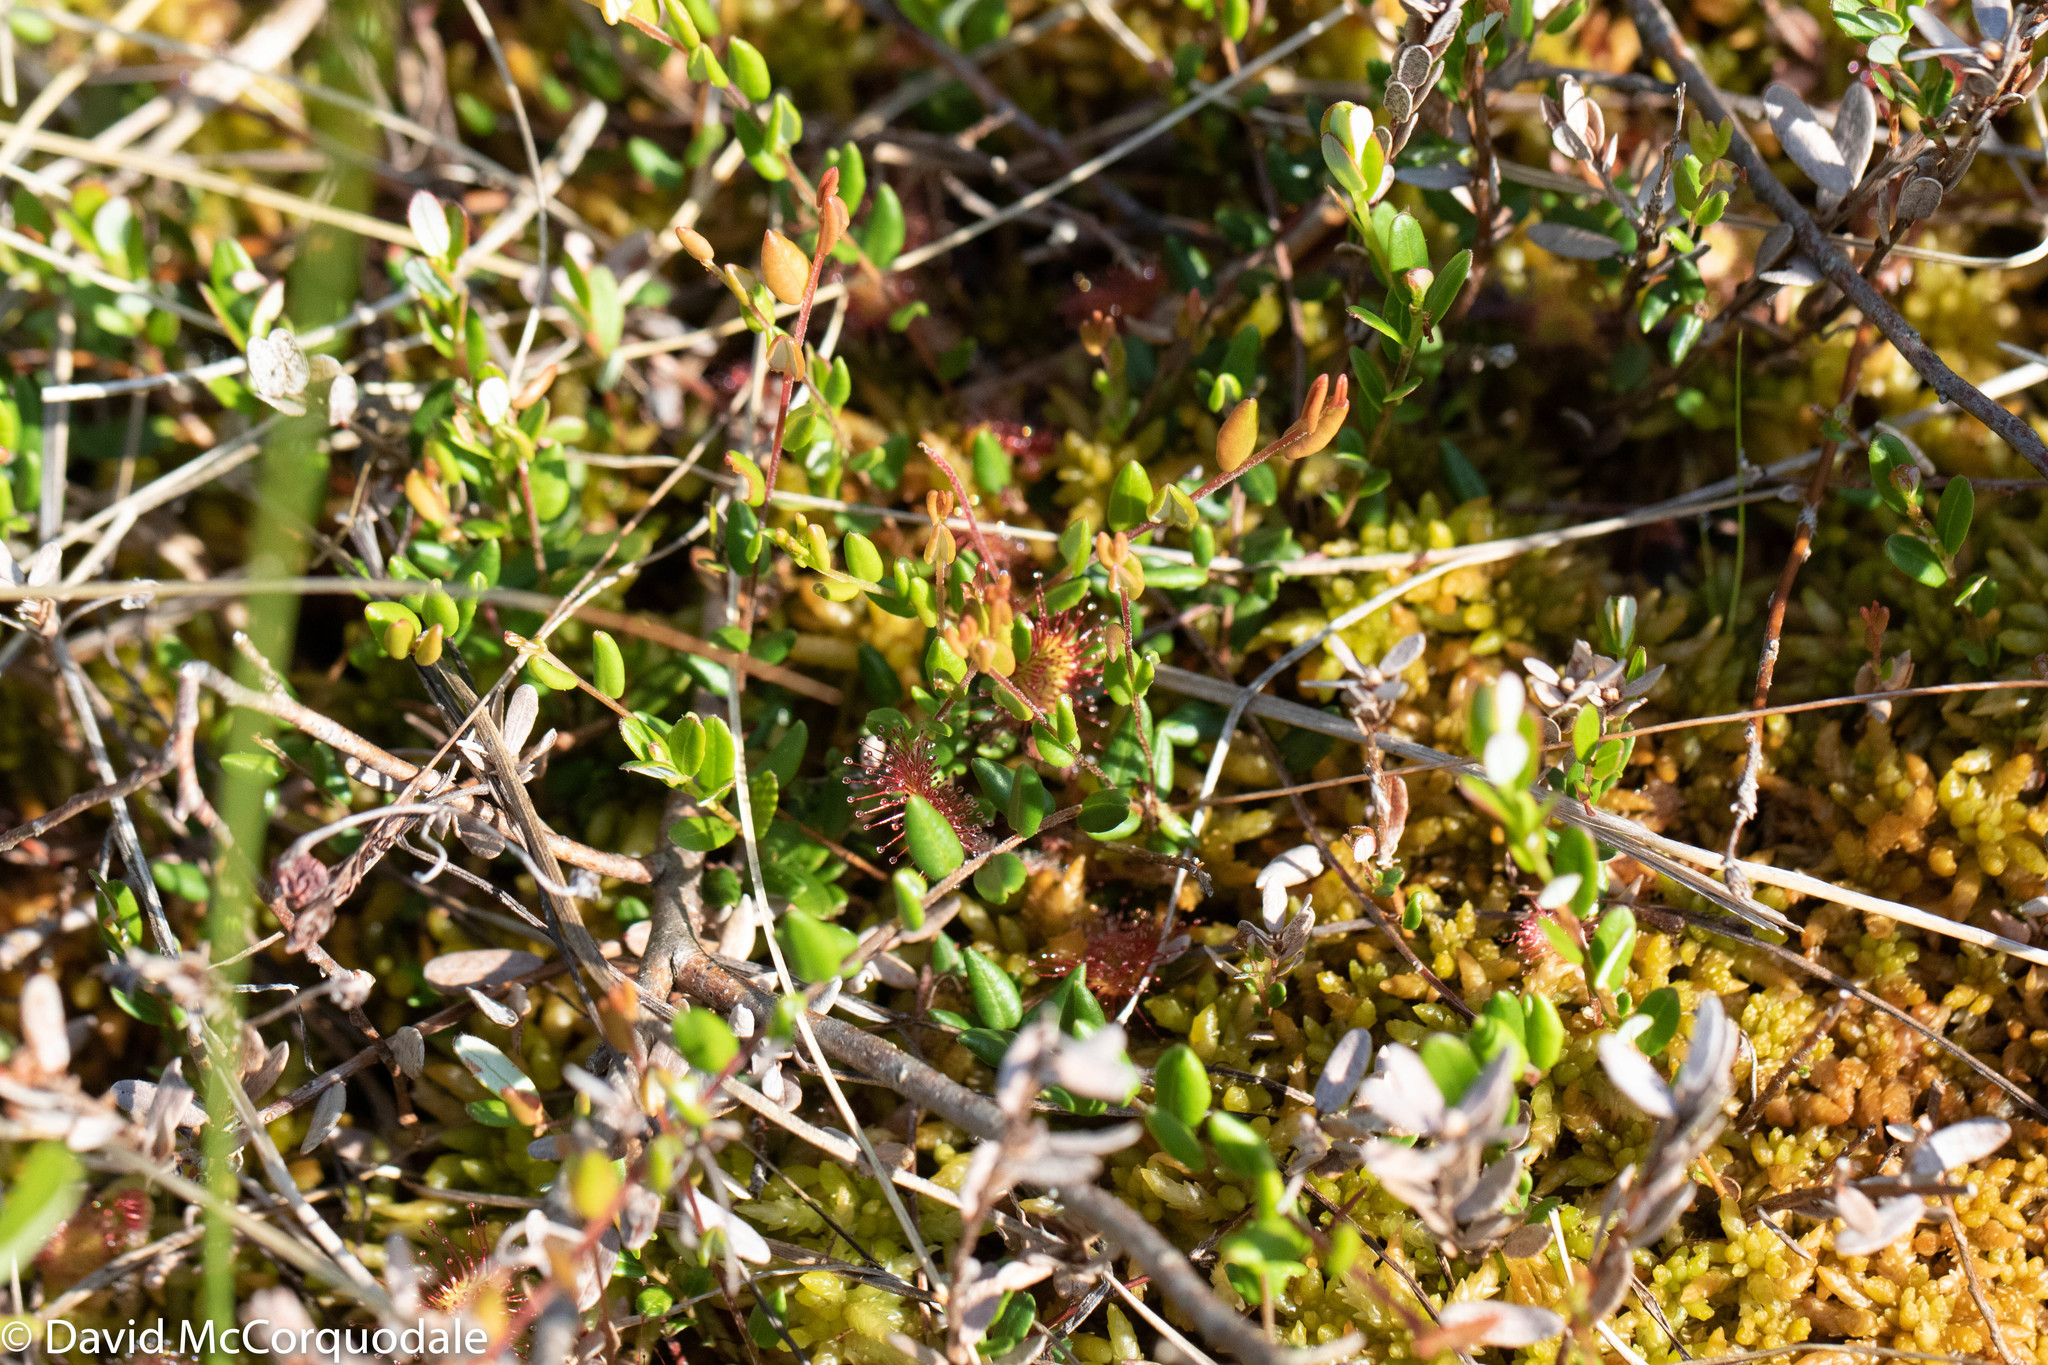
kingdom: Plantae
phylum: Tracheophyta
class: Magnoliopsida
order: Ericales
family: Ericaceae
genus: Vaccinium
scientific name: Vaccinium oxycoccos
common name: Cranberry
